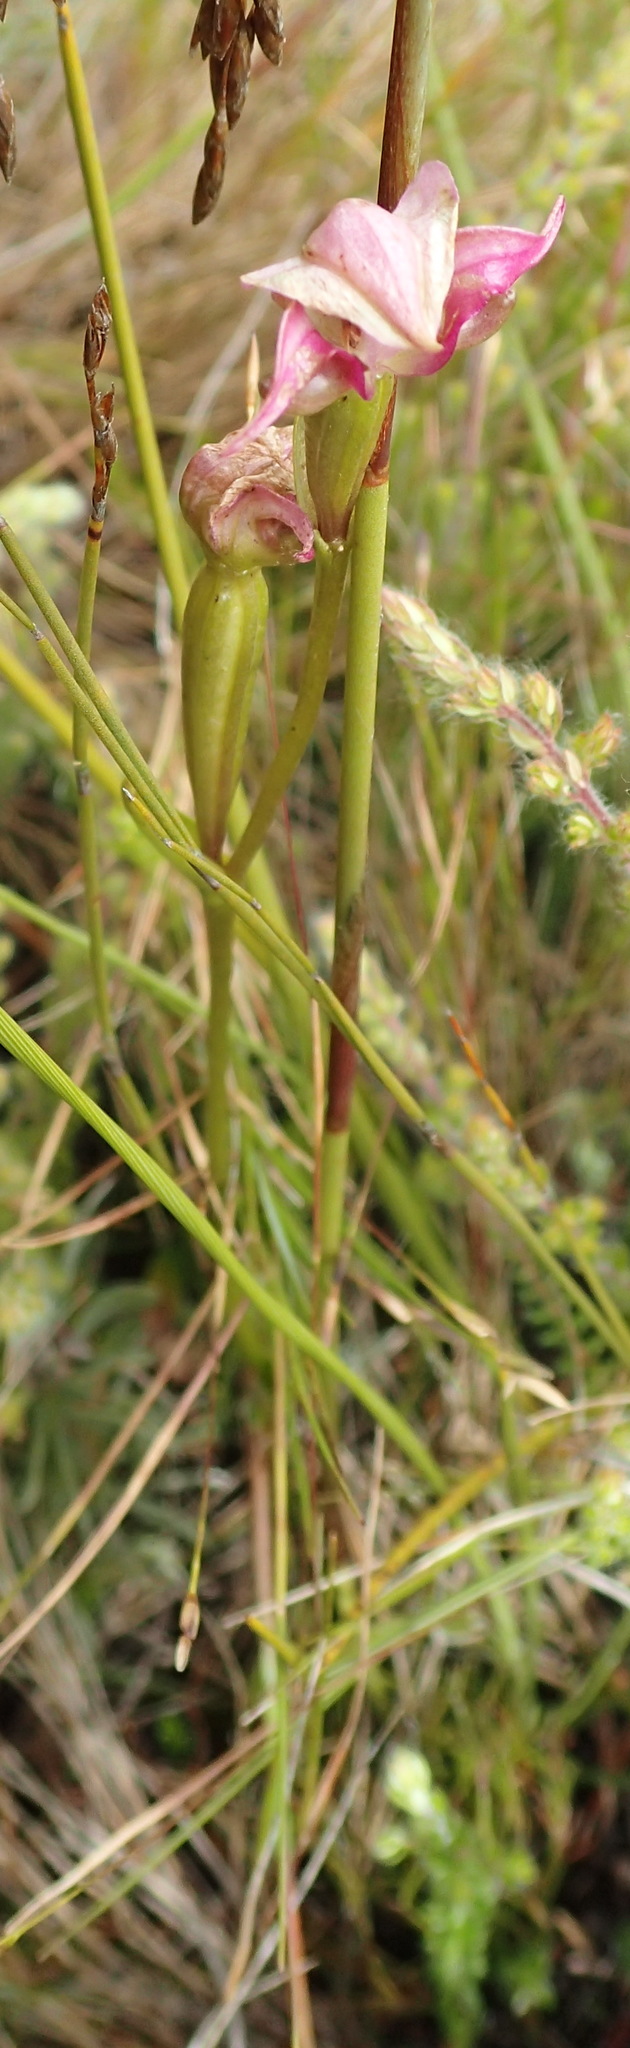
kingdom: Plantae
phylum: Tracheophyta
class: Liliopsida
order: Asparagales
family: Orchidaceae
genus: Disperis
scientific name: Disperis paludosa
